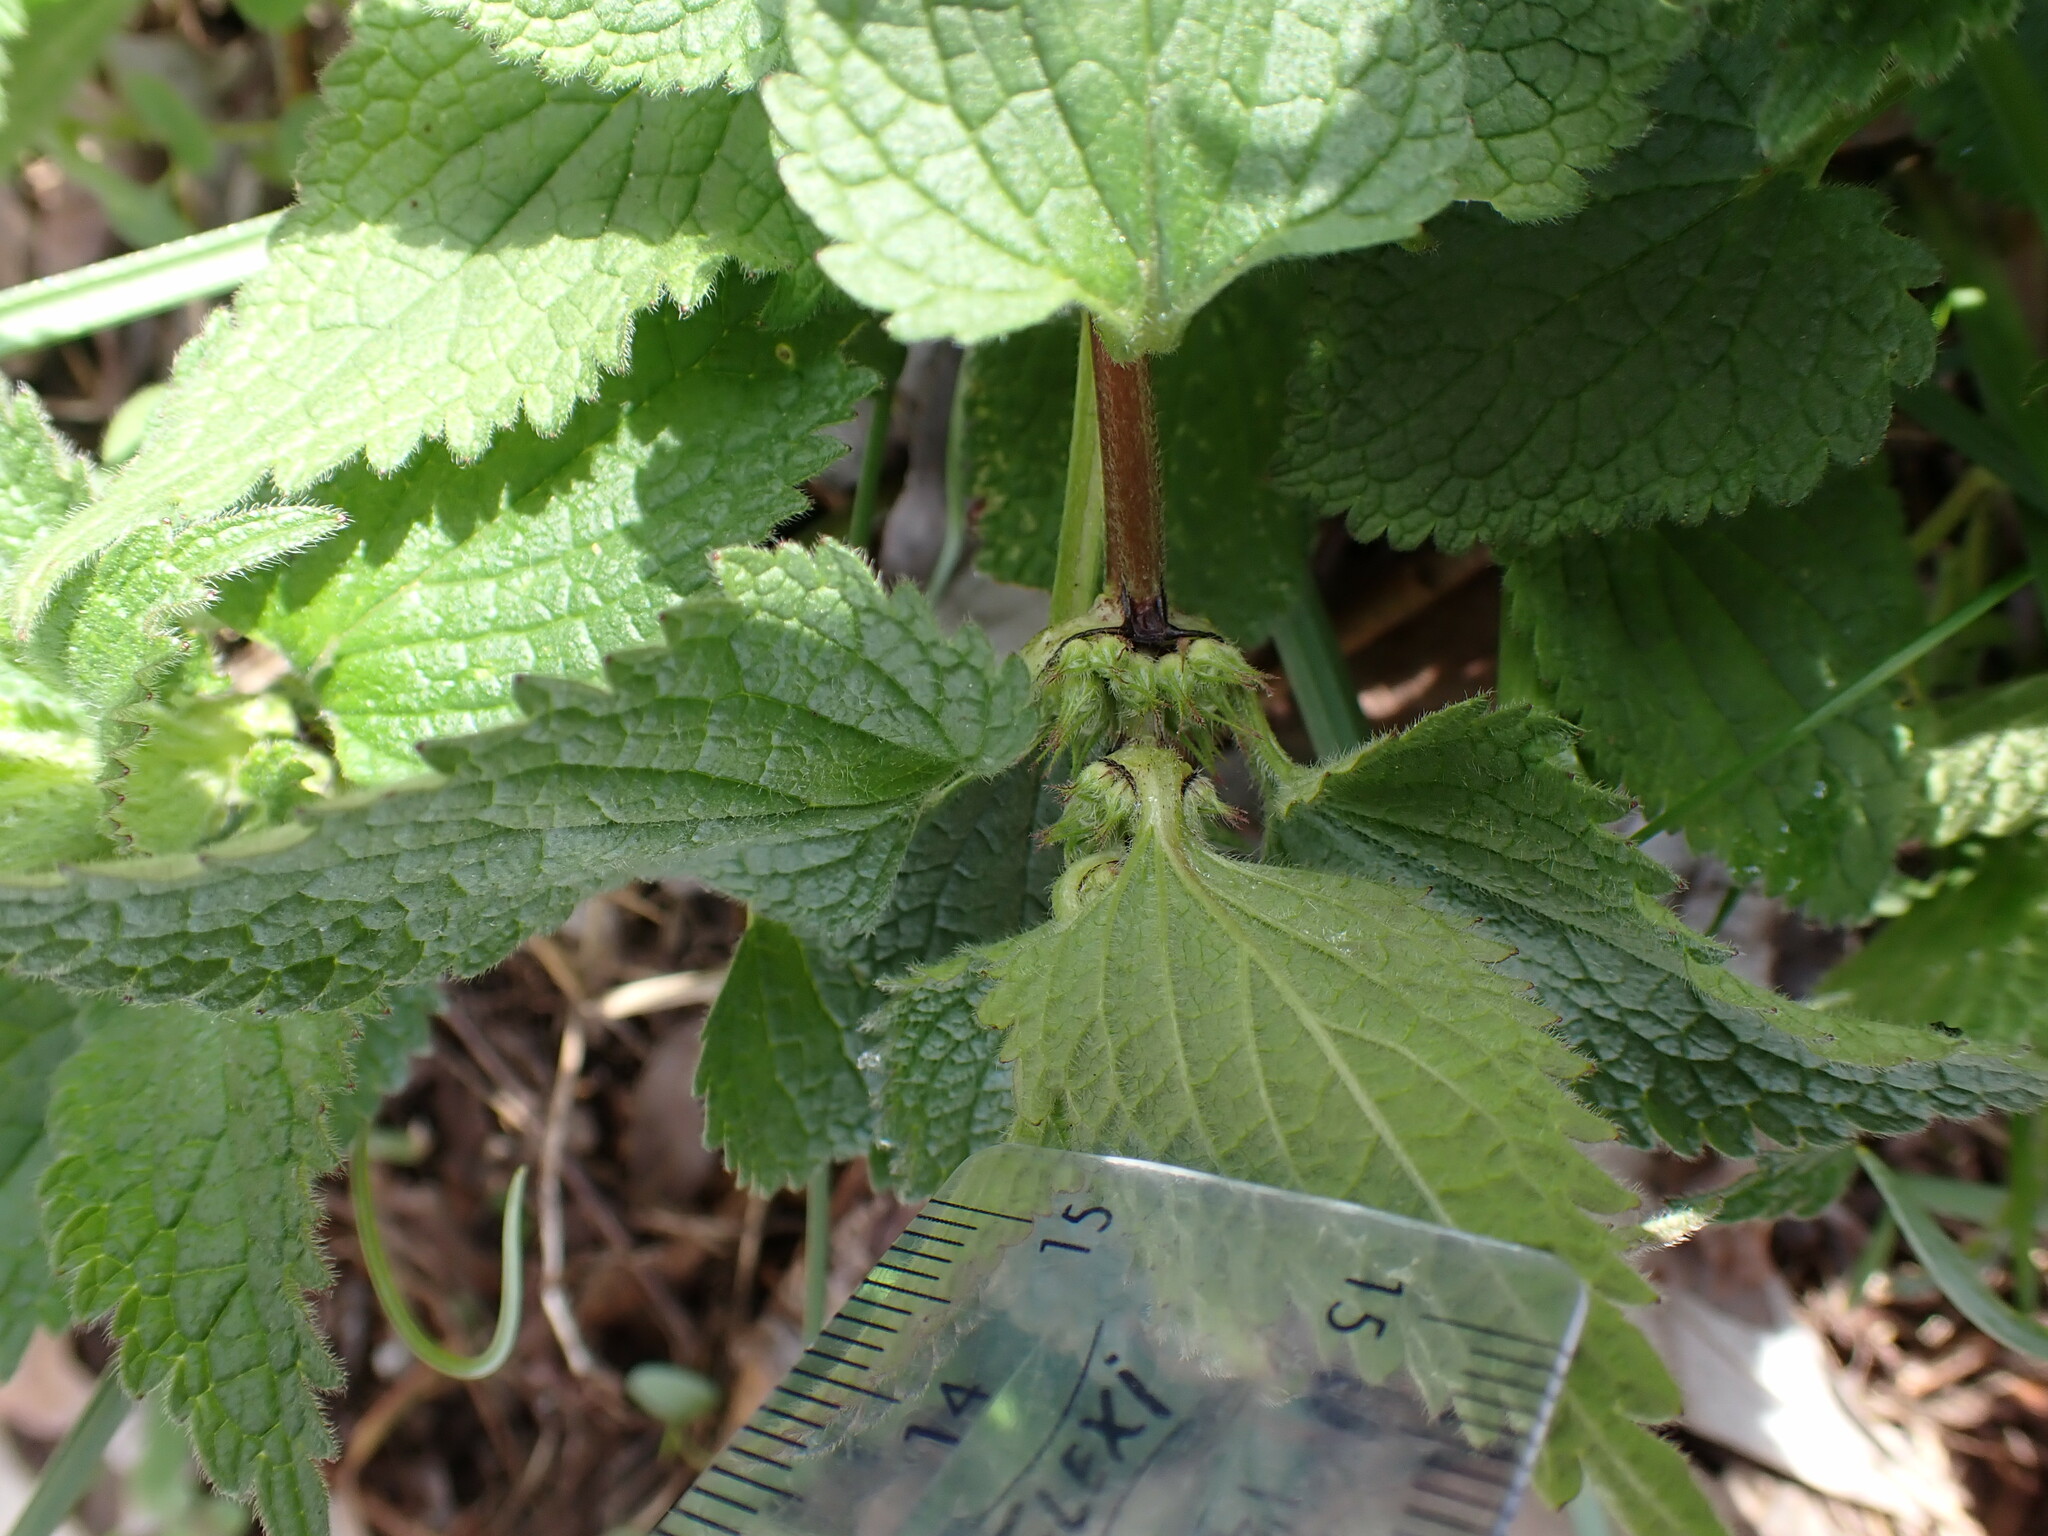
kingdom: Plantae
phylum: Tracheophyta
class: Magnoliopsida
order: Lamiales
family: Lamiaceae
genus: Lamium
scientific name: Lamium album
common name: White dead-nettle
